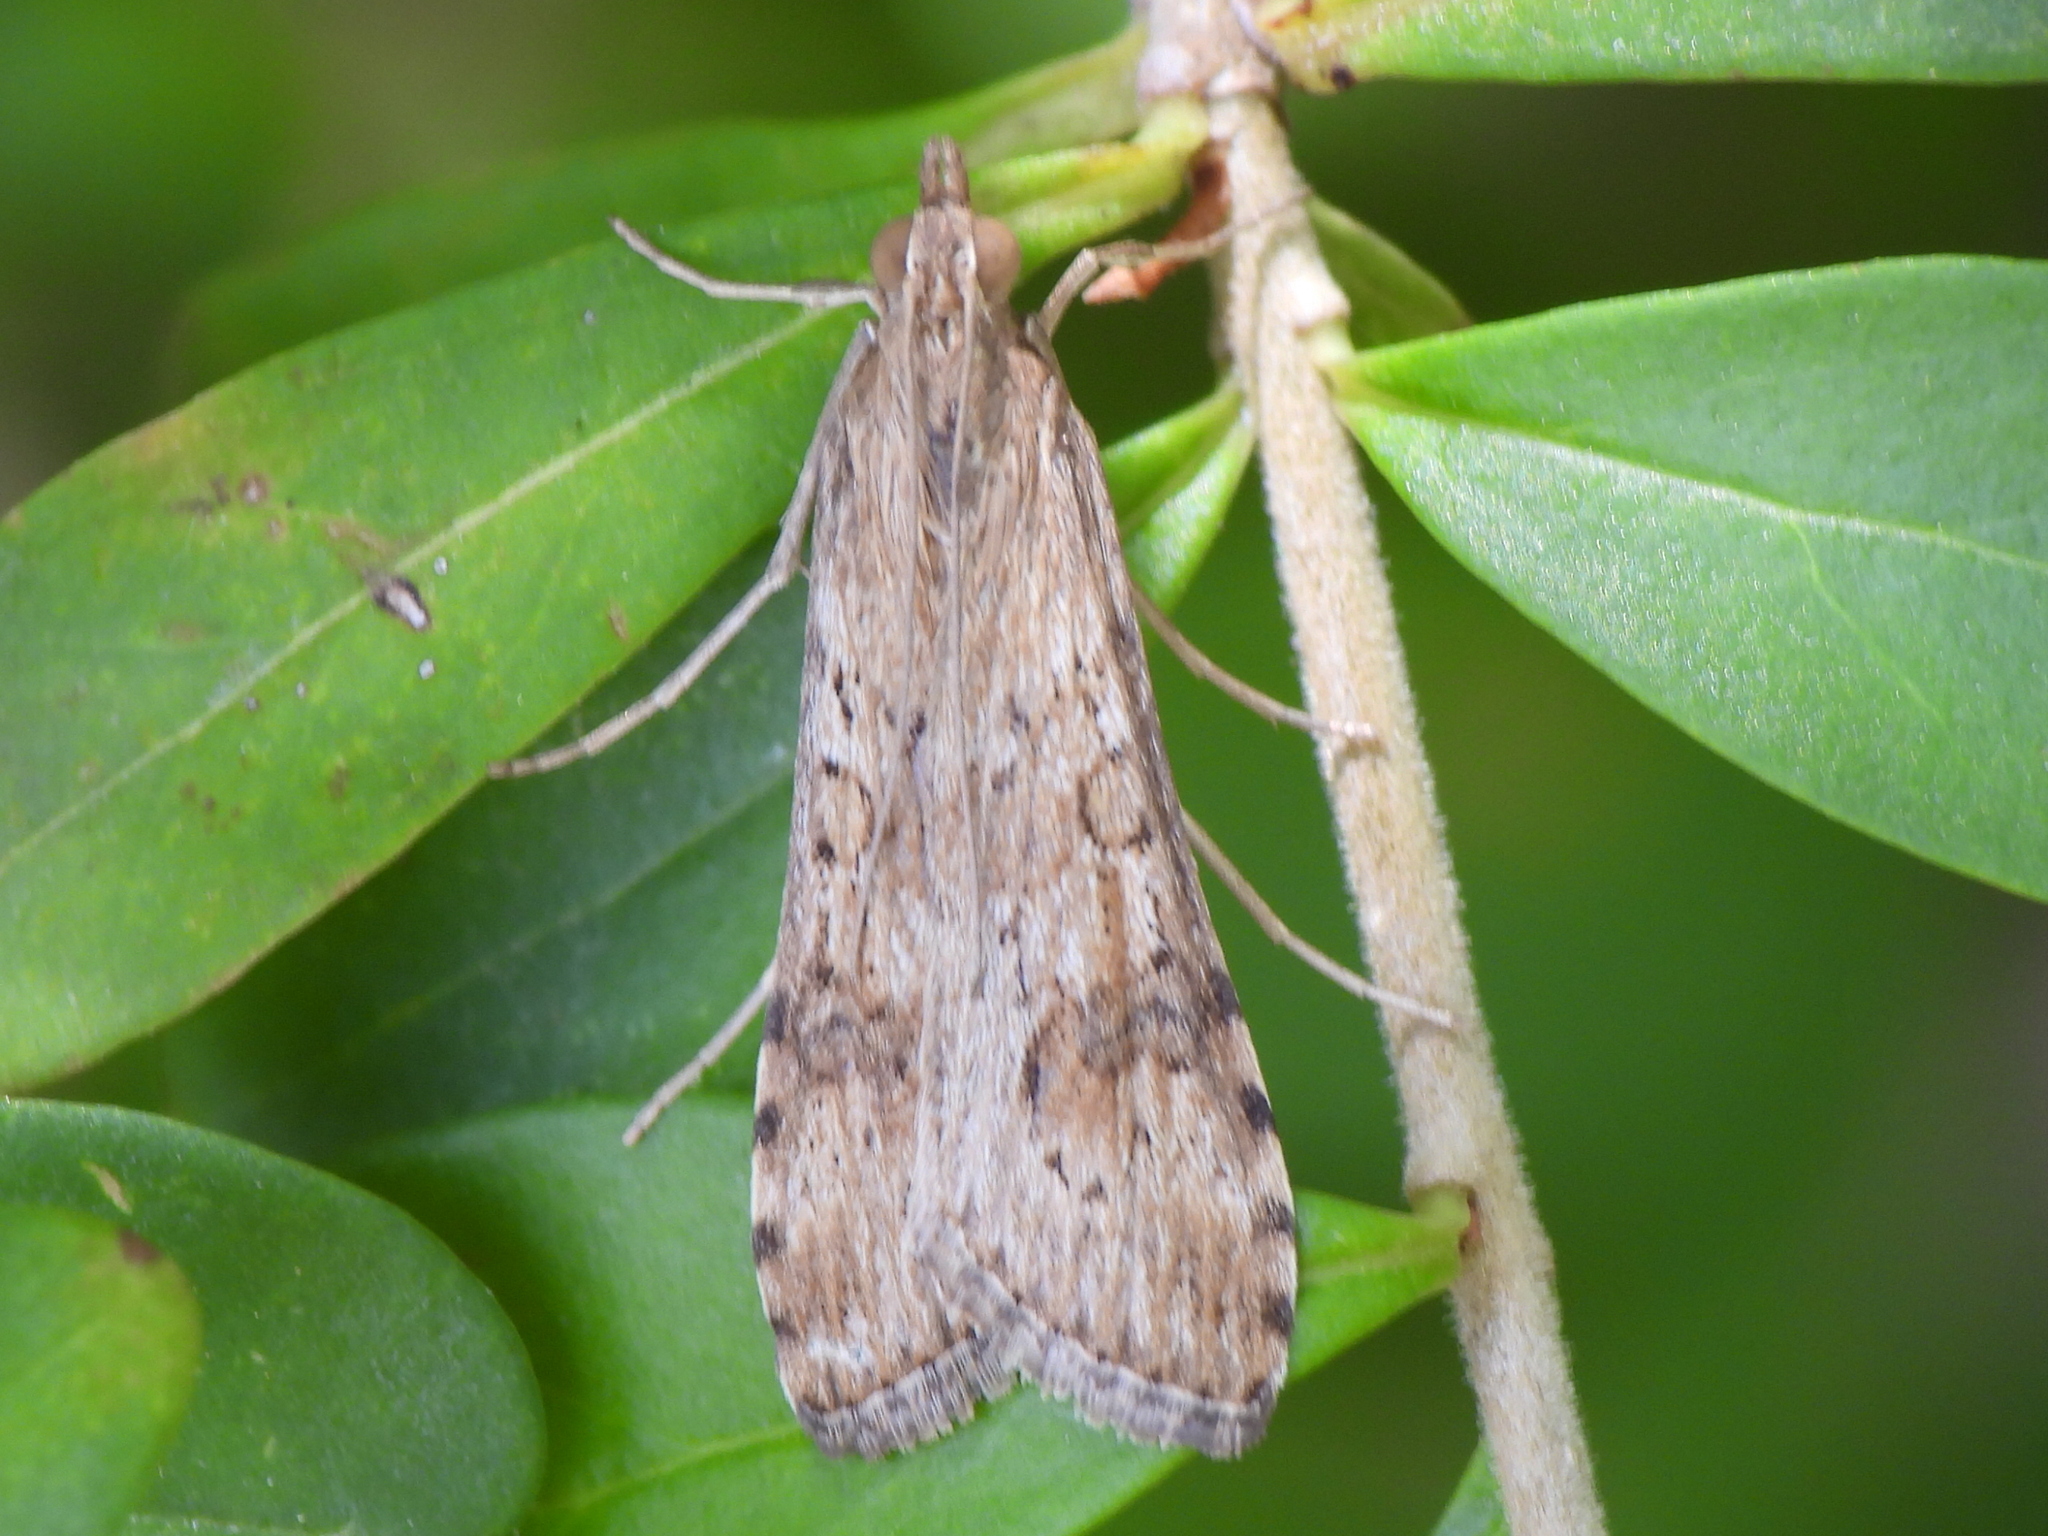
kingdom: Animalia
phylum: Arthropoda
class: Insecta
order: Lepidoptera
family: Crambidae
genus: Nomophila
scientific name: Nomophila nearctica
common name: American rush veneer
